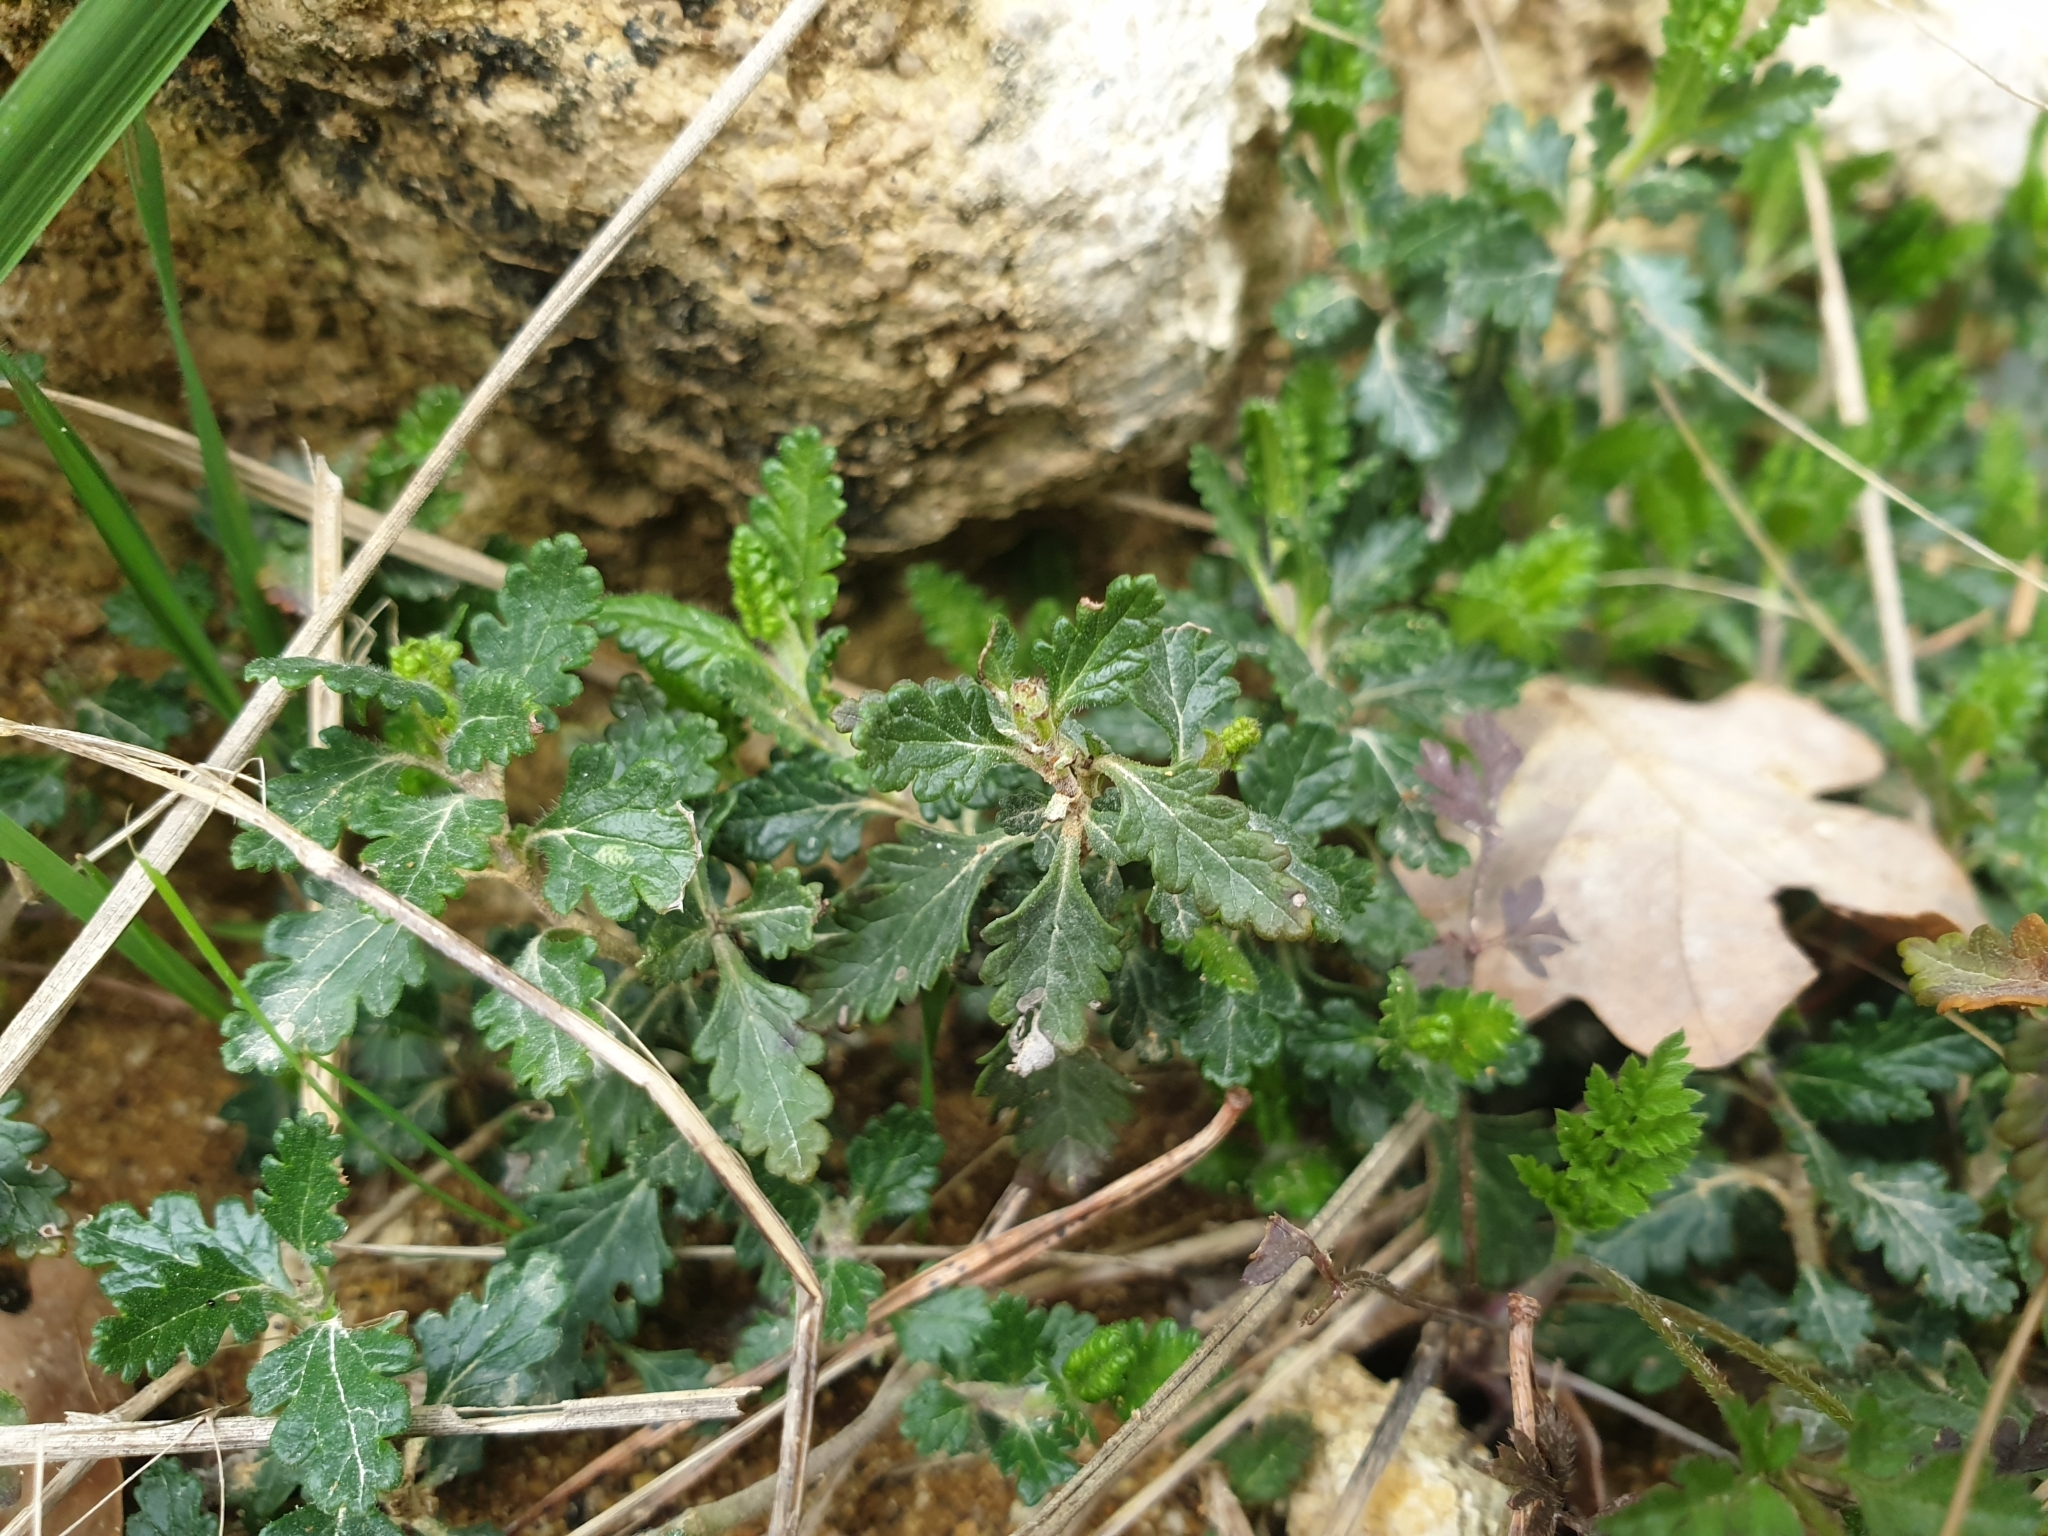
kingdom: Plantae
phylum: Tracheophyta
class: Magnoliopsida
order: Lamiales
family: Lamiaceae
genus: Teucrium
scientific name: Teucrium chamaedrys
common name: Wall germander
